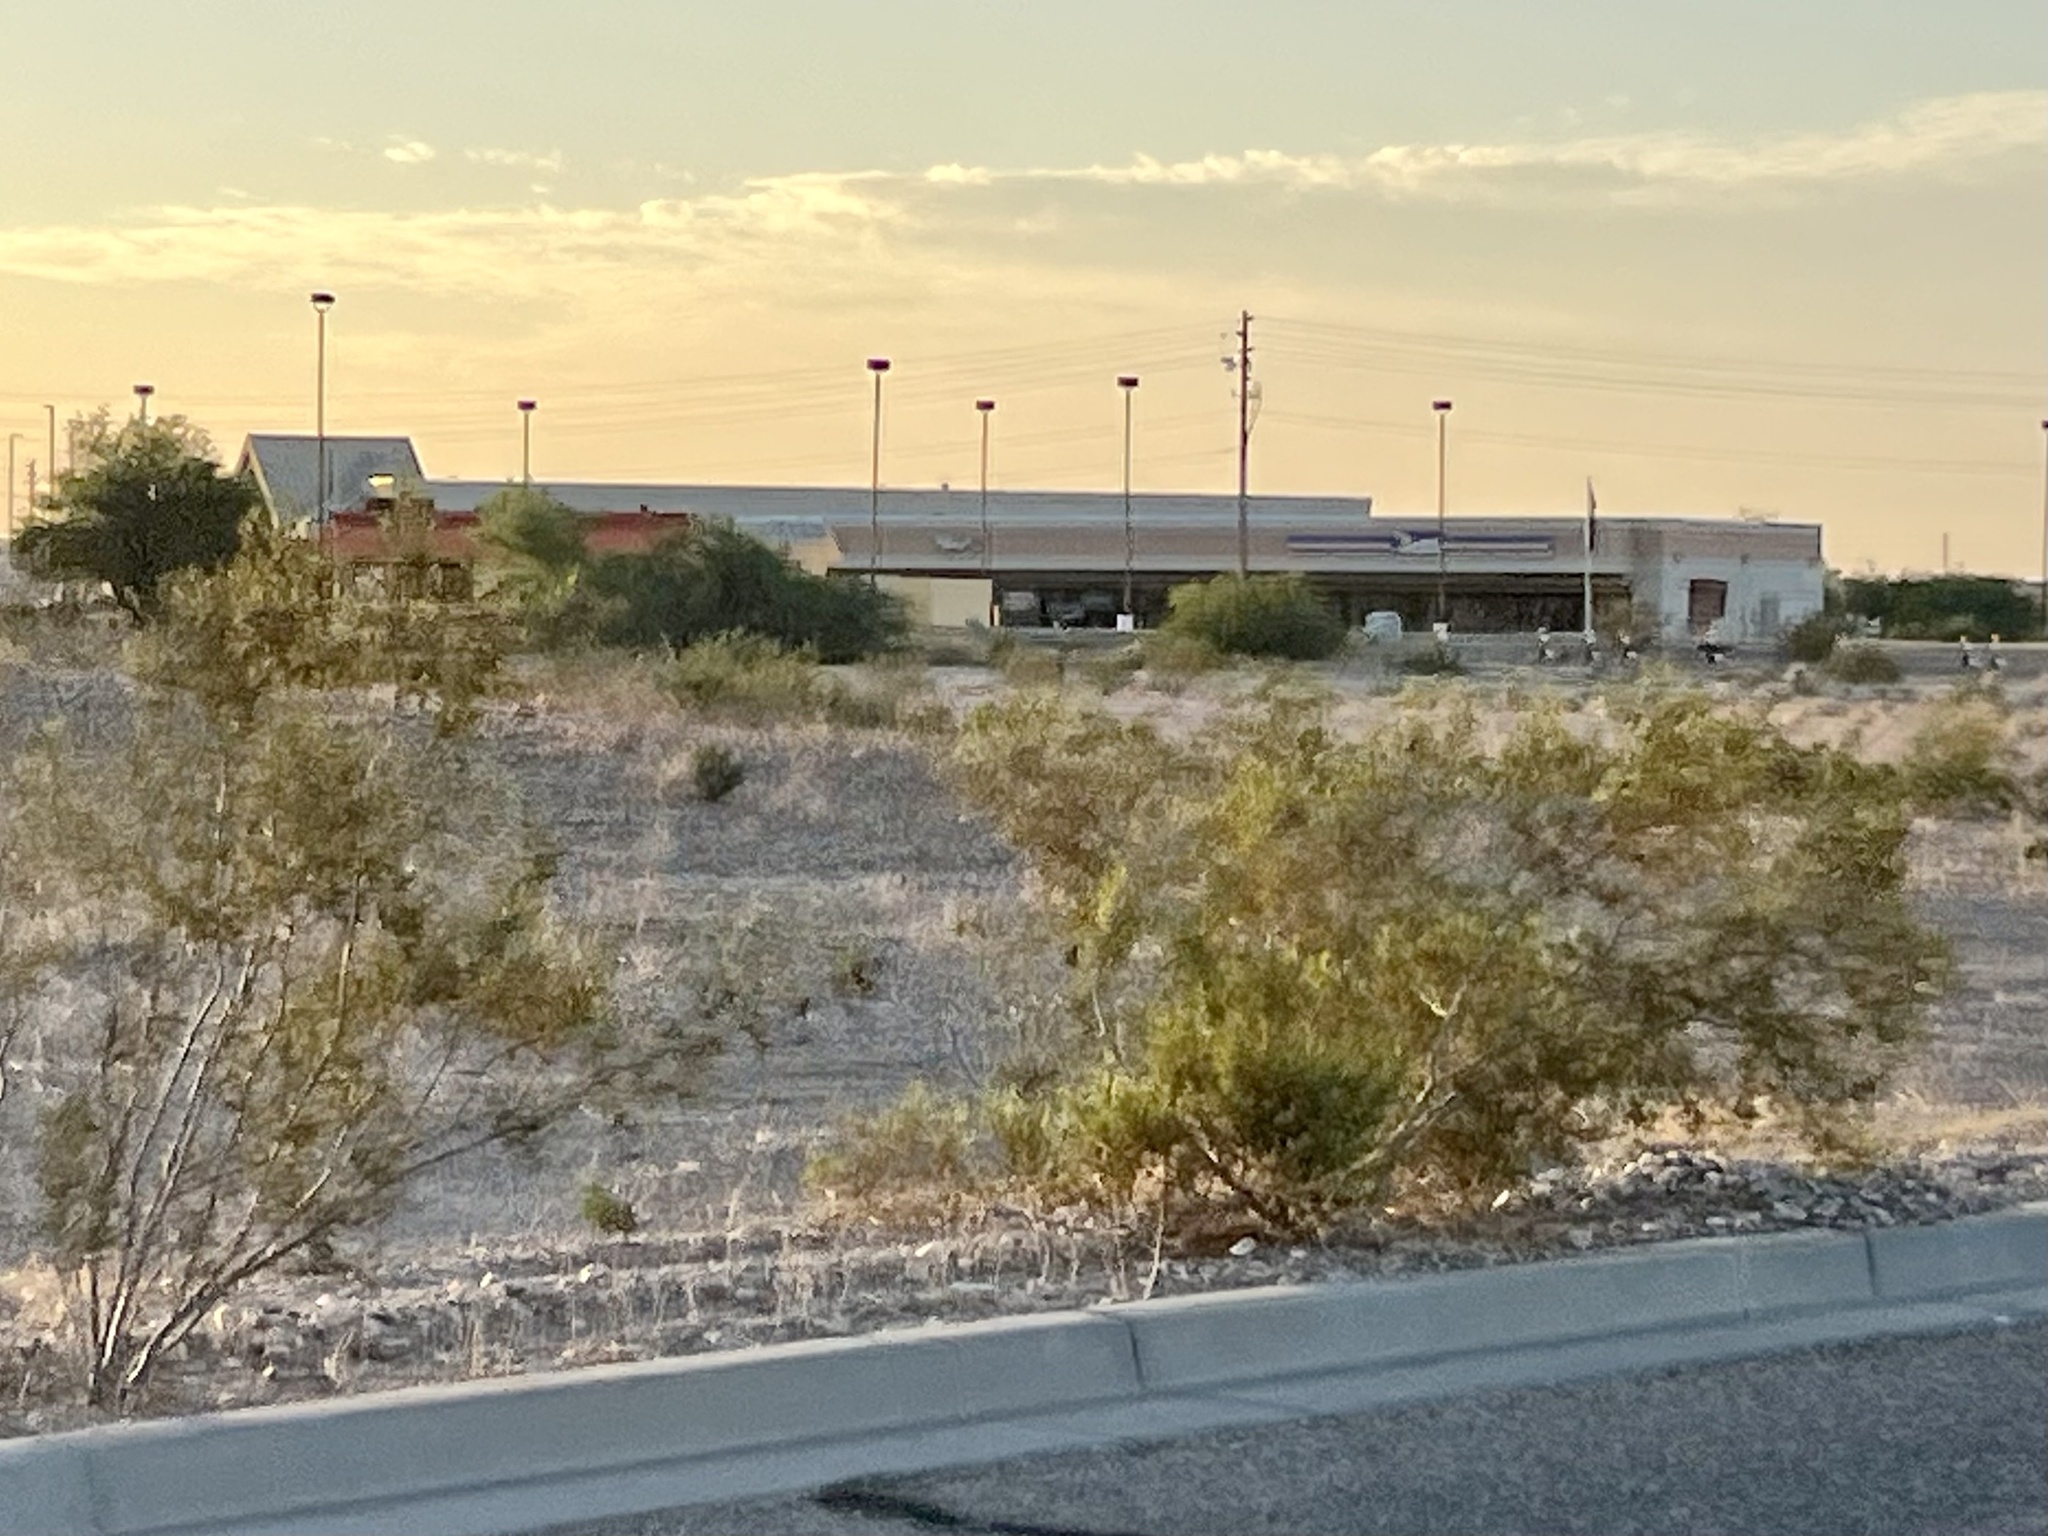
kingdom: Plantae
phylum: Tracheophyta
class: Magnoliopsida
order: Zygophyllales
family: Zygophyllaceae
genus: Larrea
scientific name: Larrea tridentata
